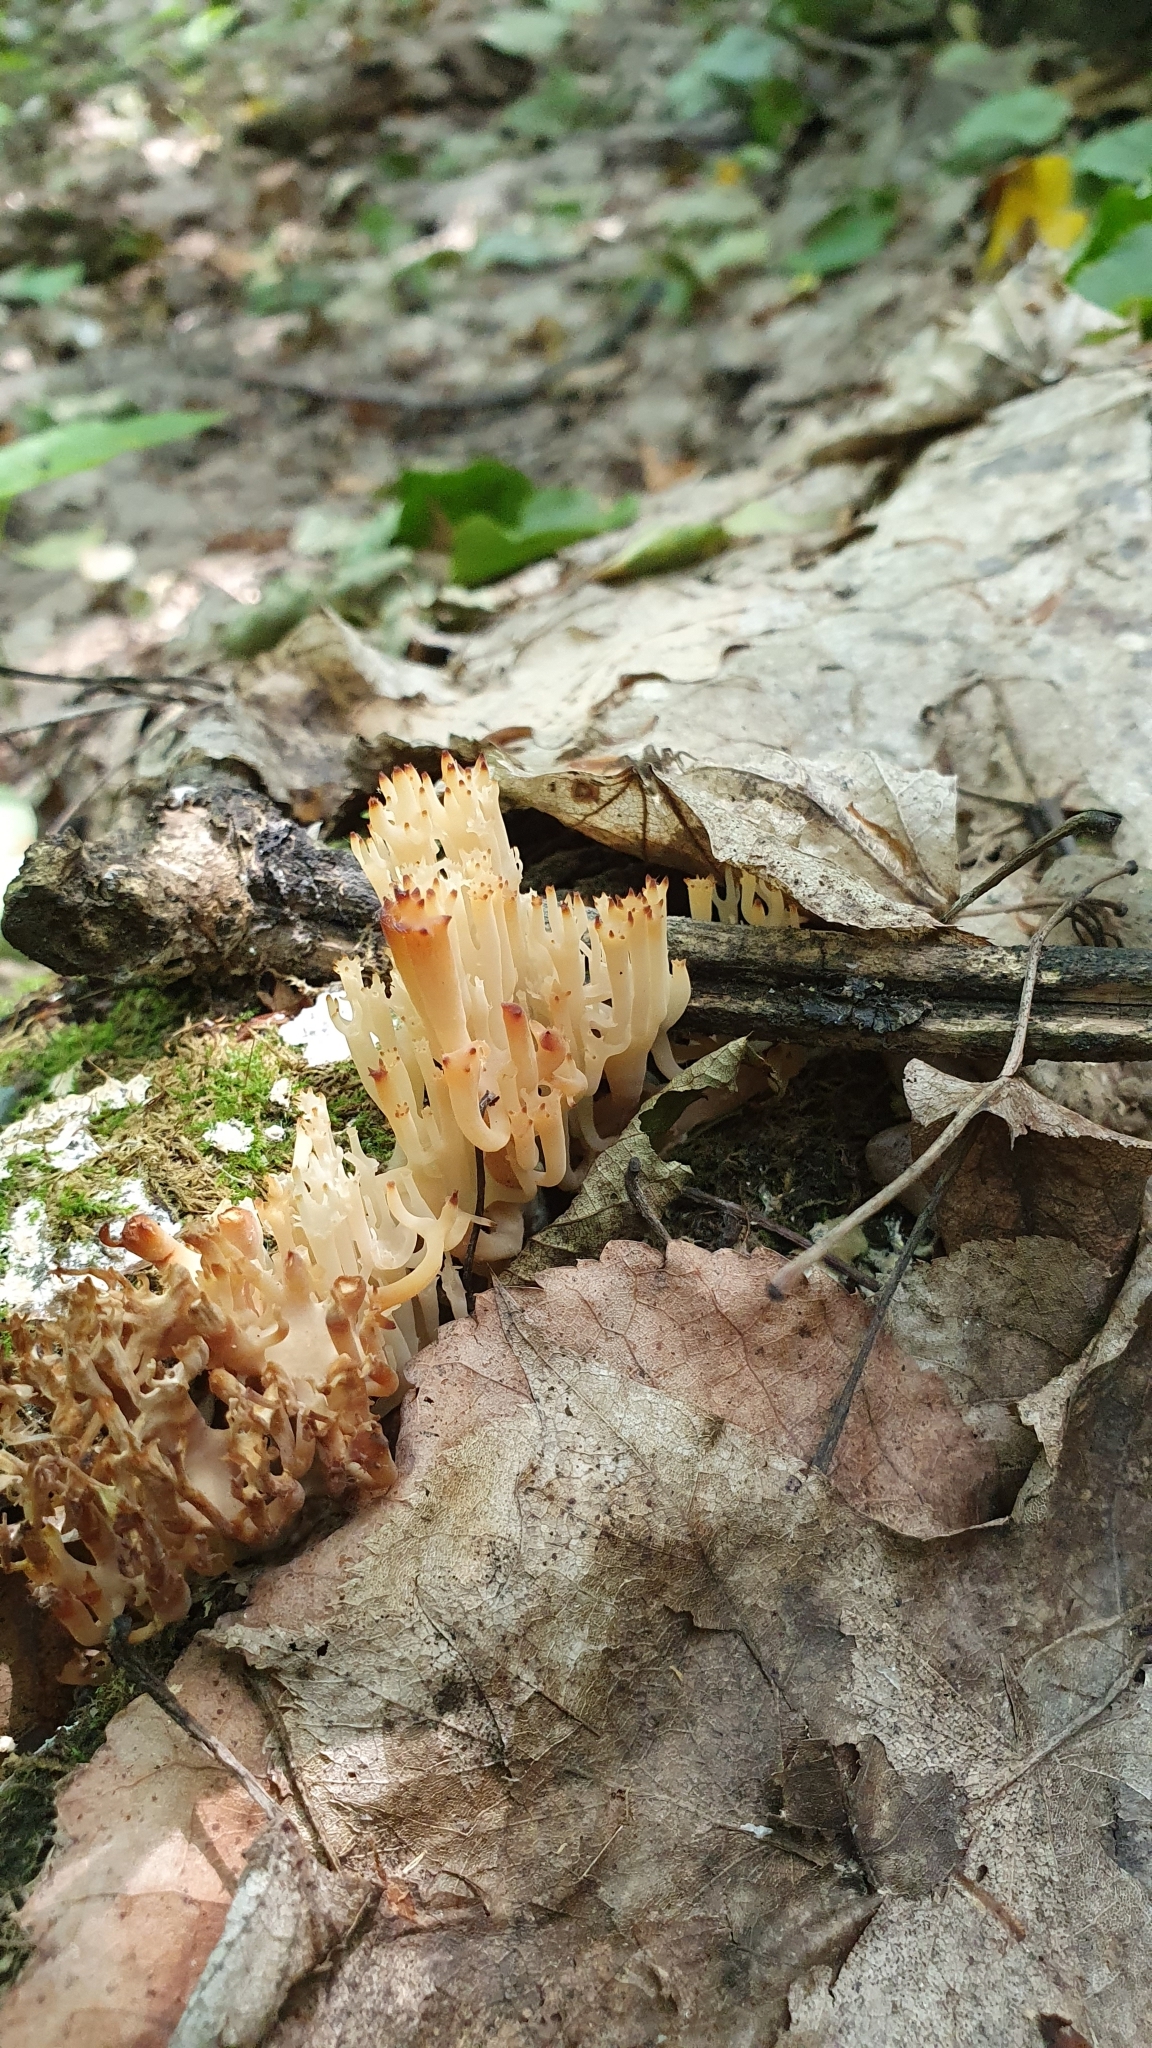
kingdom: Fungi
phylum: Basidiomycota
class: Agaricomycetes
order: Russulales
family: Auriscalpiaceae
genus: Artomyces
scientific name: Artomyces pyxidatus
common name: Crown-tipped coral fungus
